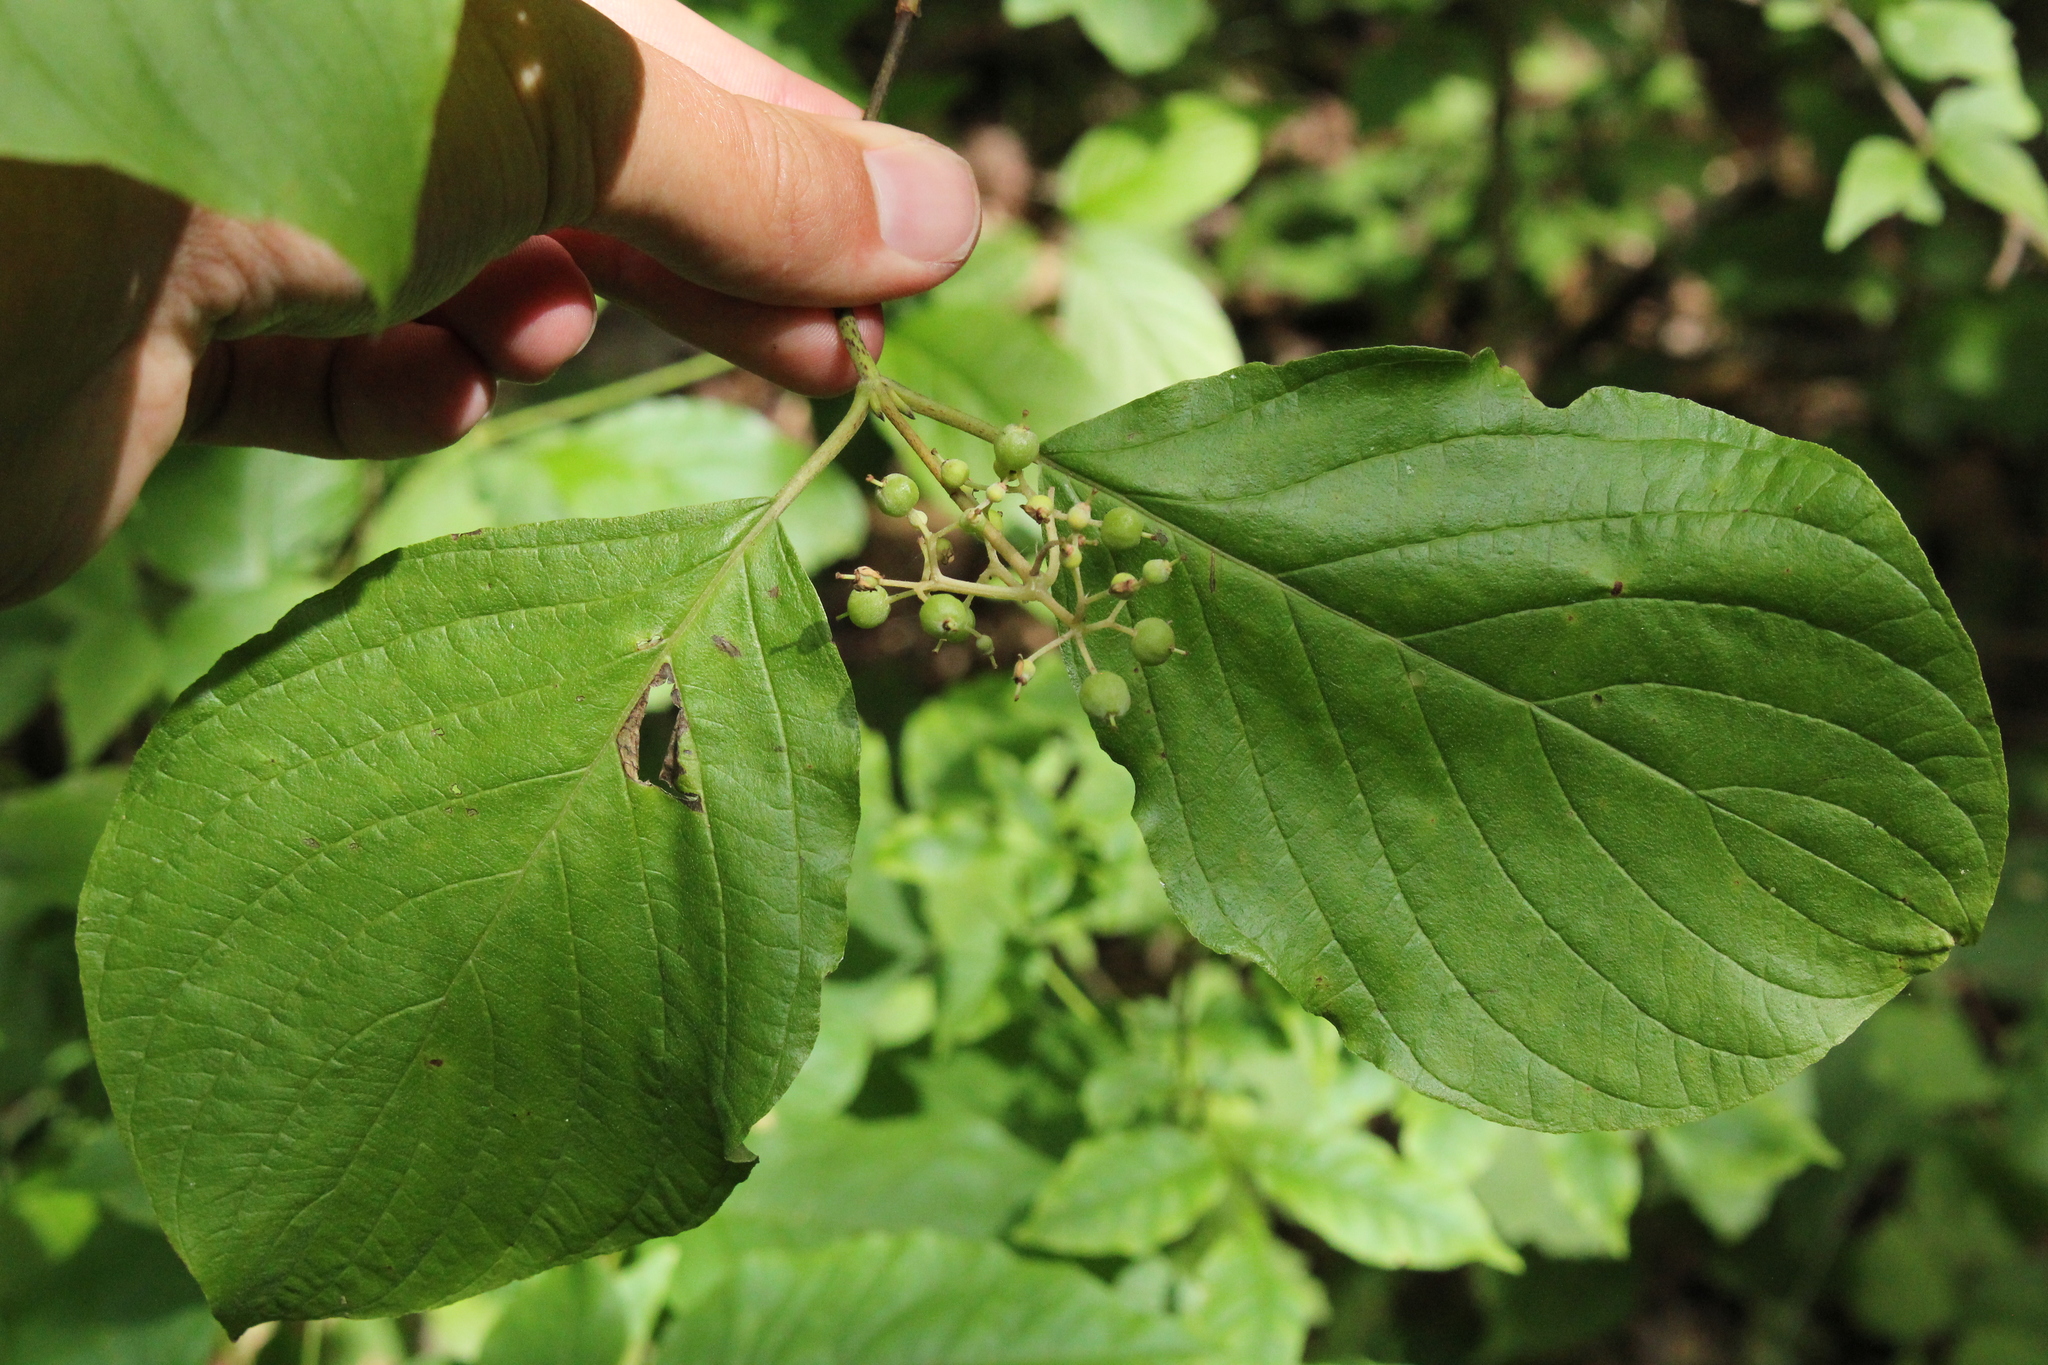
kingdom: Plantae
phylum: Tracheophyta
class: Magnoliopsida
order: Cornales
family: Cornaceae
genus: Cornus
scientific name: Cornus rugosa
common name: Round-leaf dogwood
